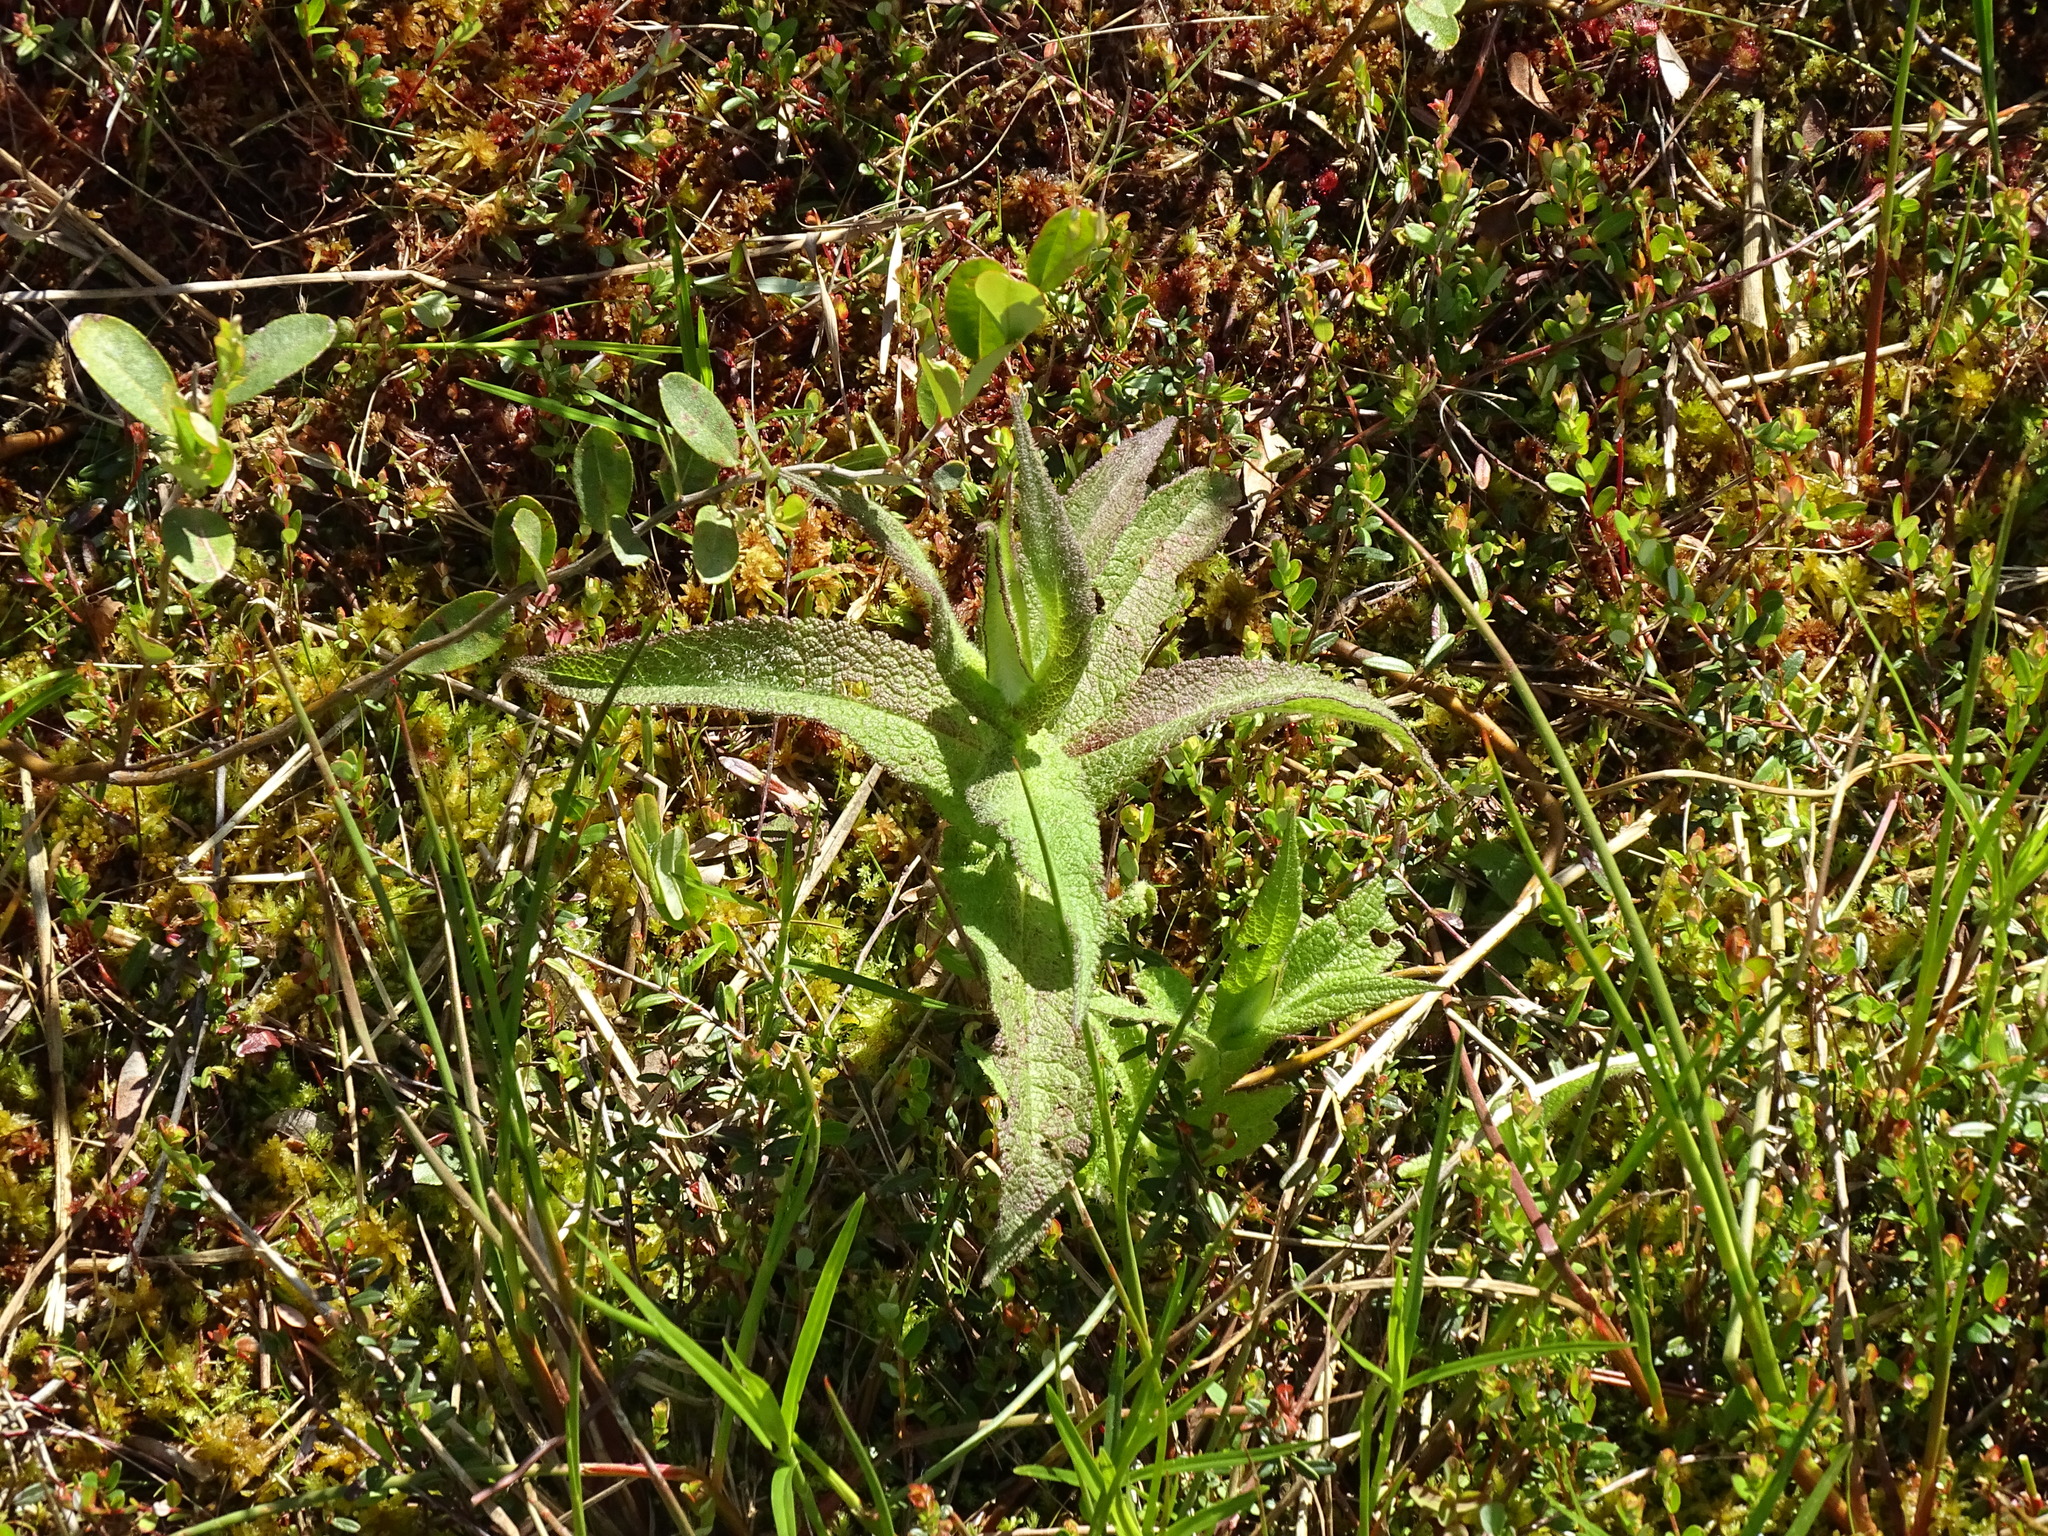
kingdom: Plantae
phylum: Tracheophyta
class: Magnoliopsida
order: Asterales
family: Asteraceae
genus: Eupatorium
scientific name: Eupatorium perfoliatum
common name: Boneset
